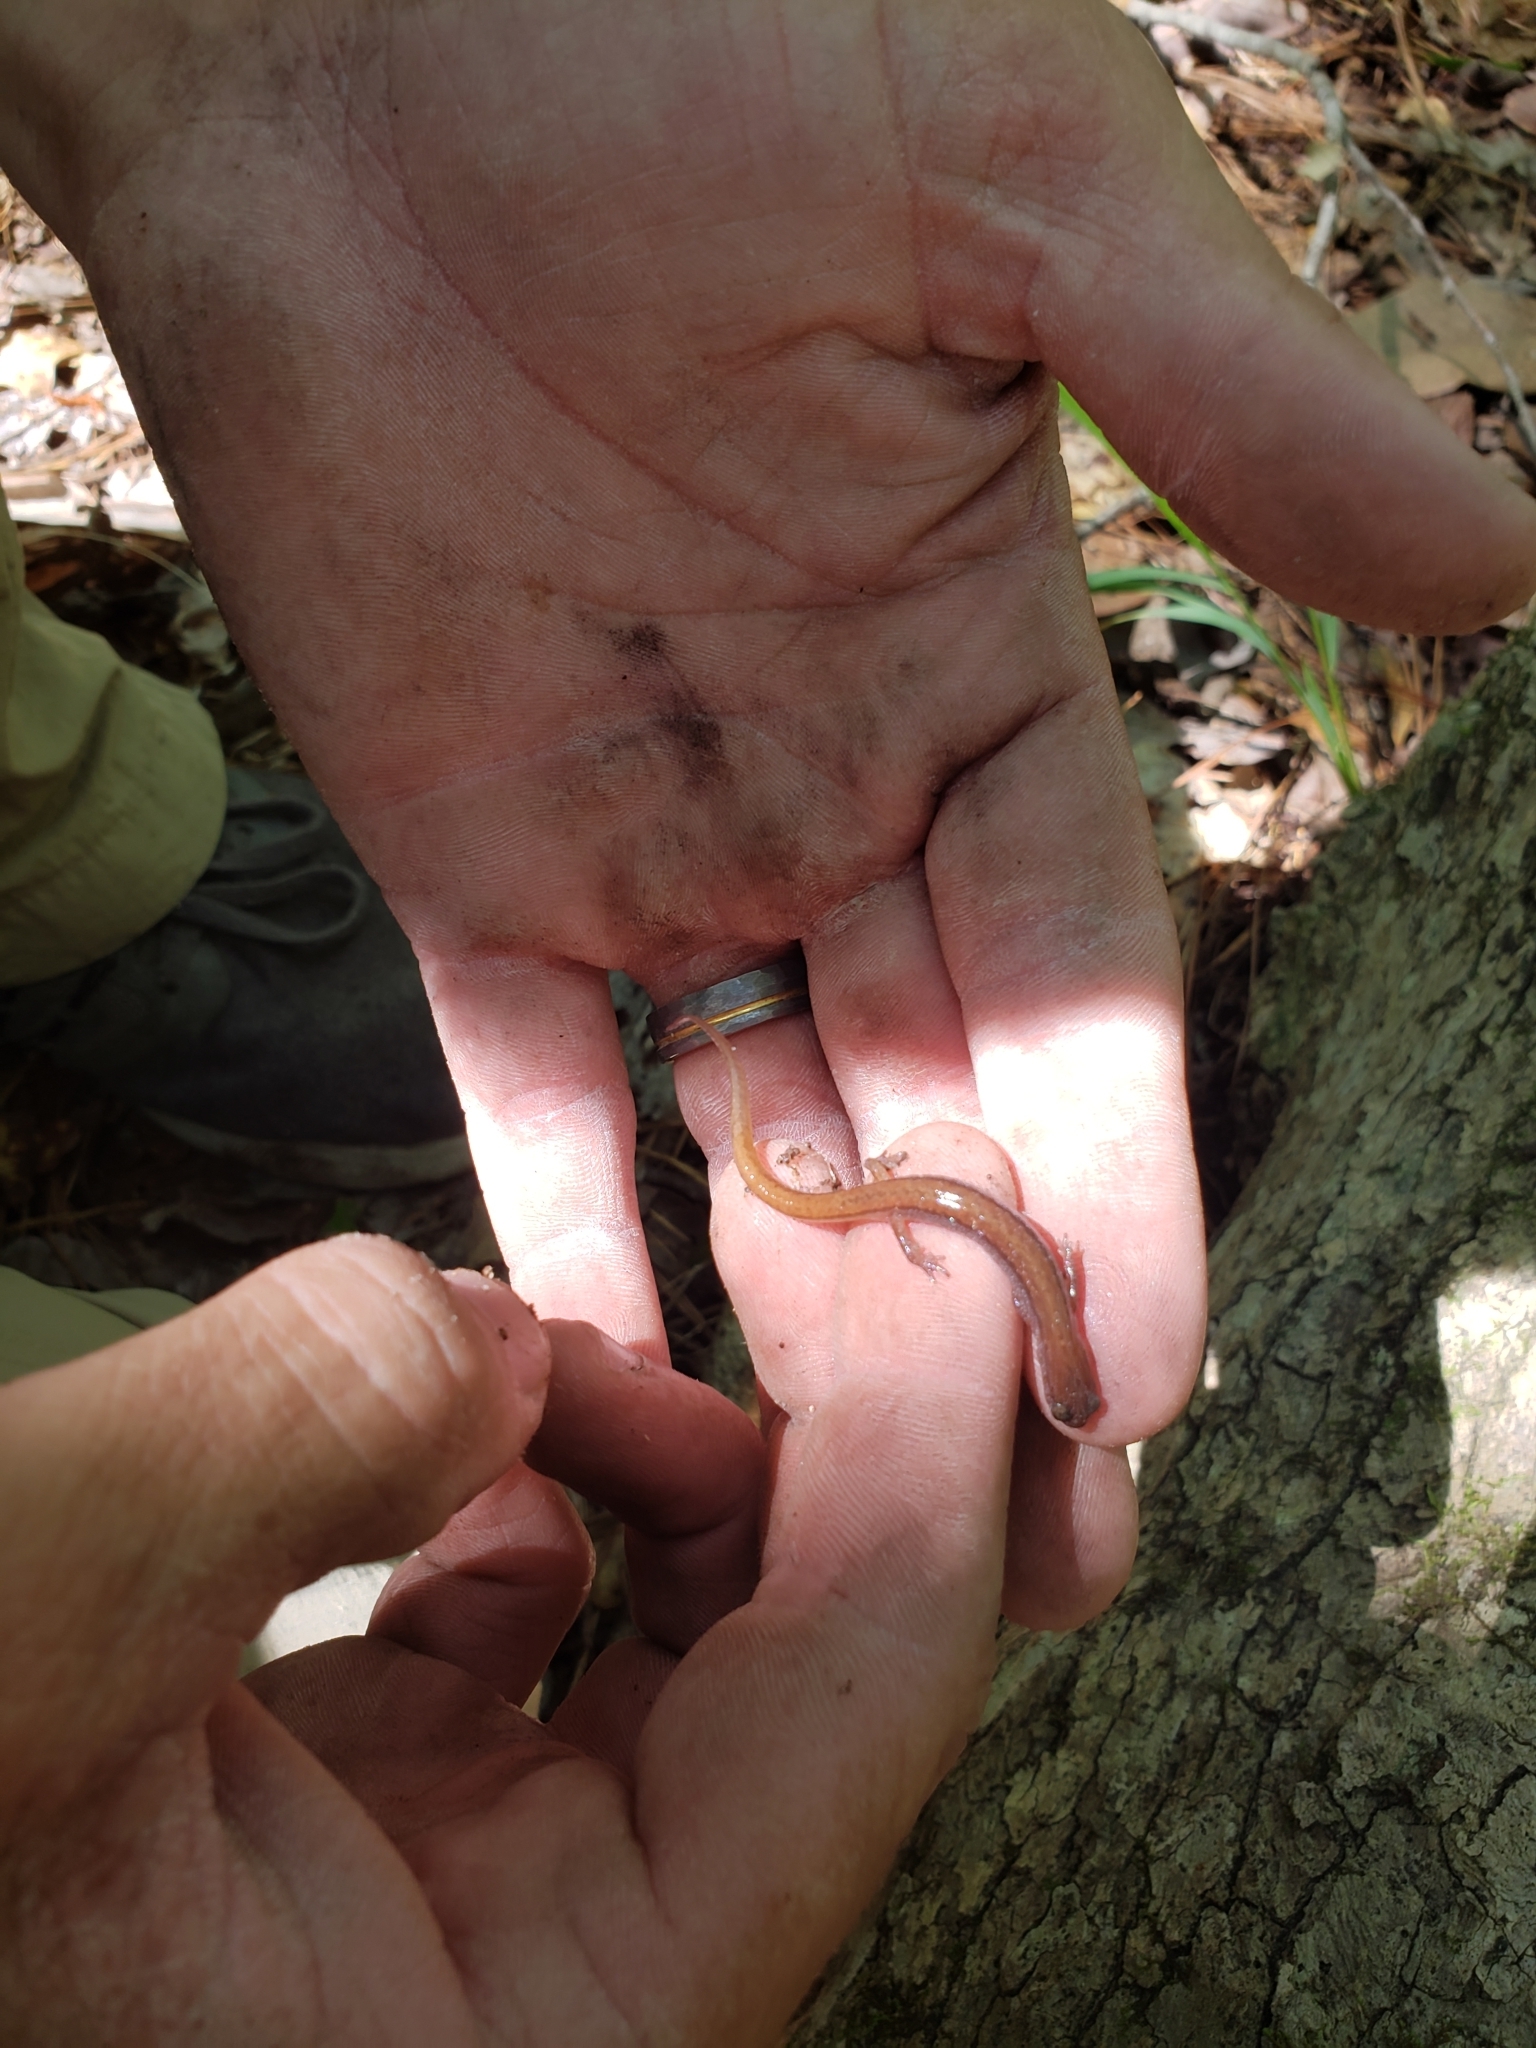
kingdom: Animalia
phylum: Chordata
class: Amphibia
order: Caudata
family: Plethodontidae
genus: Eurycea
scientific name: Eurycea paludicola
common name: Western dwarf salamander
